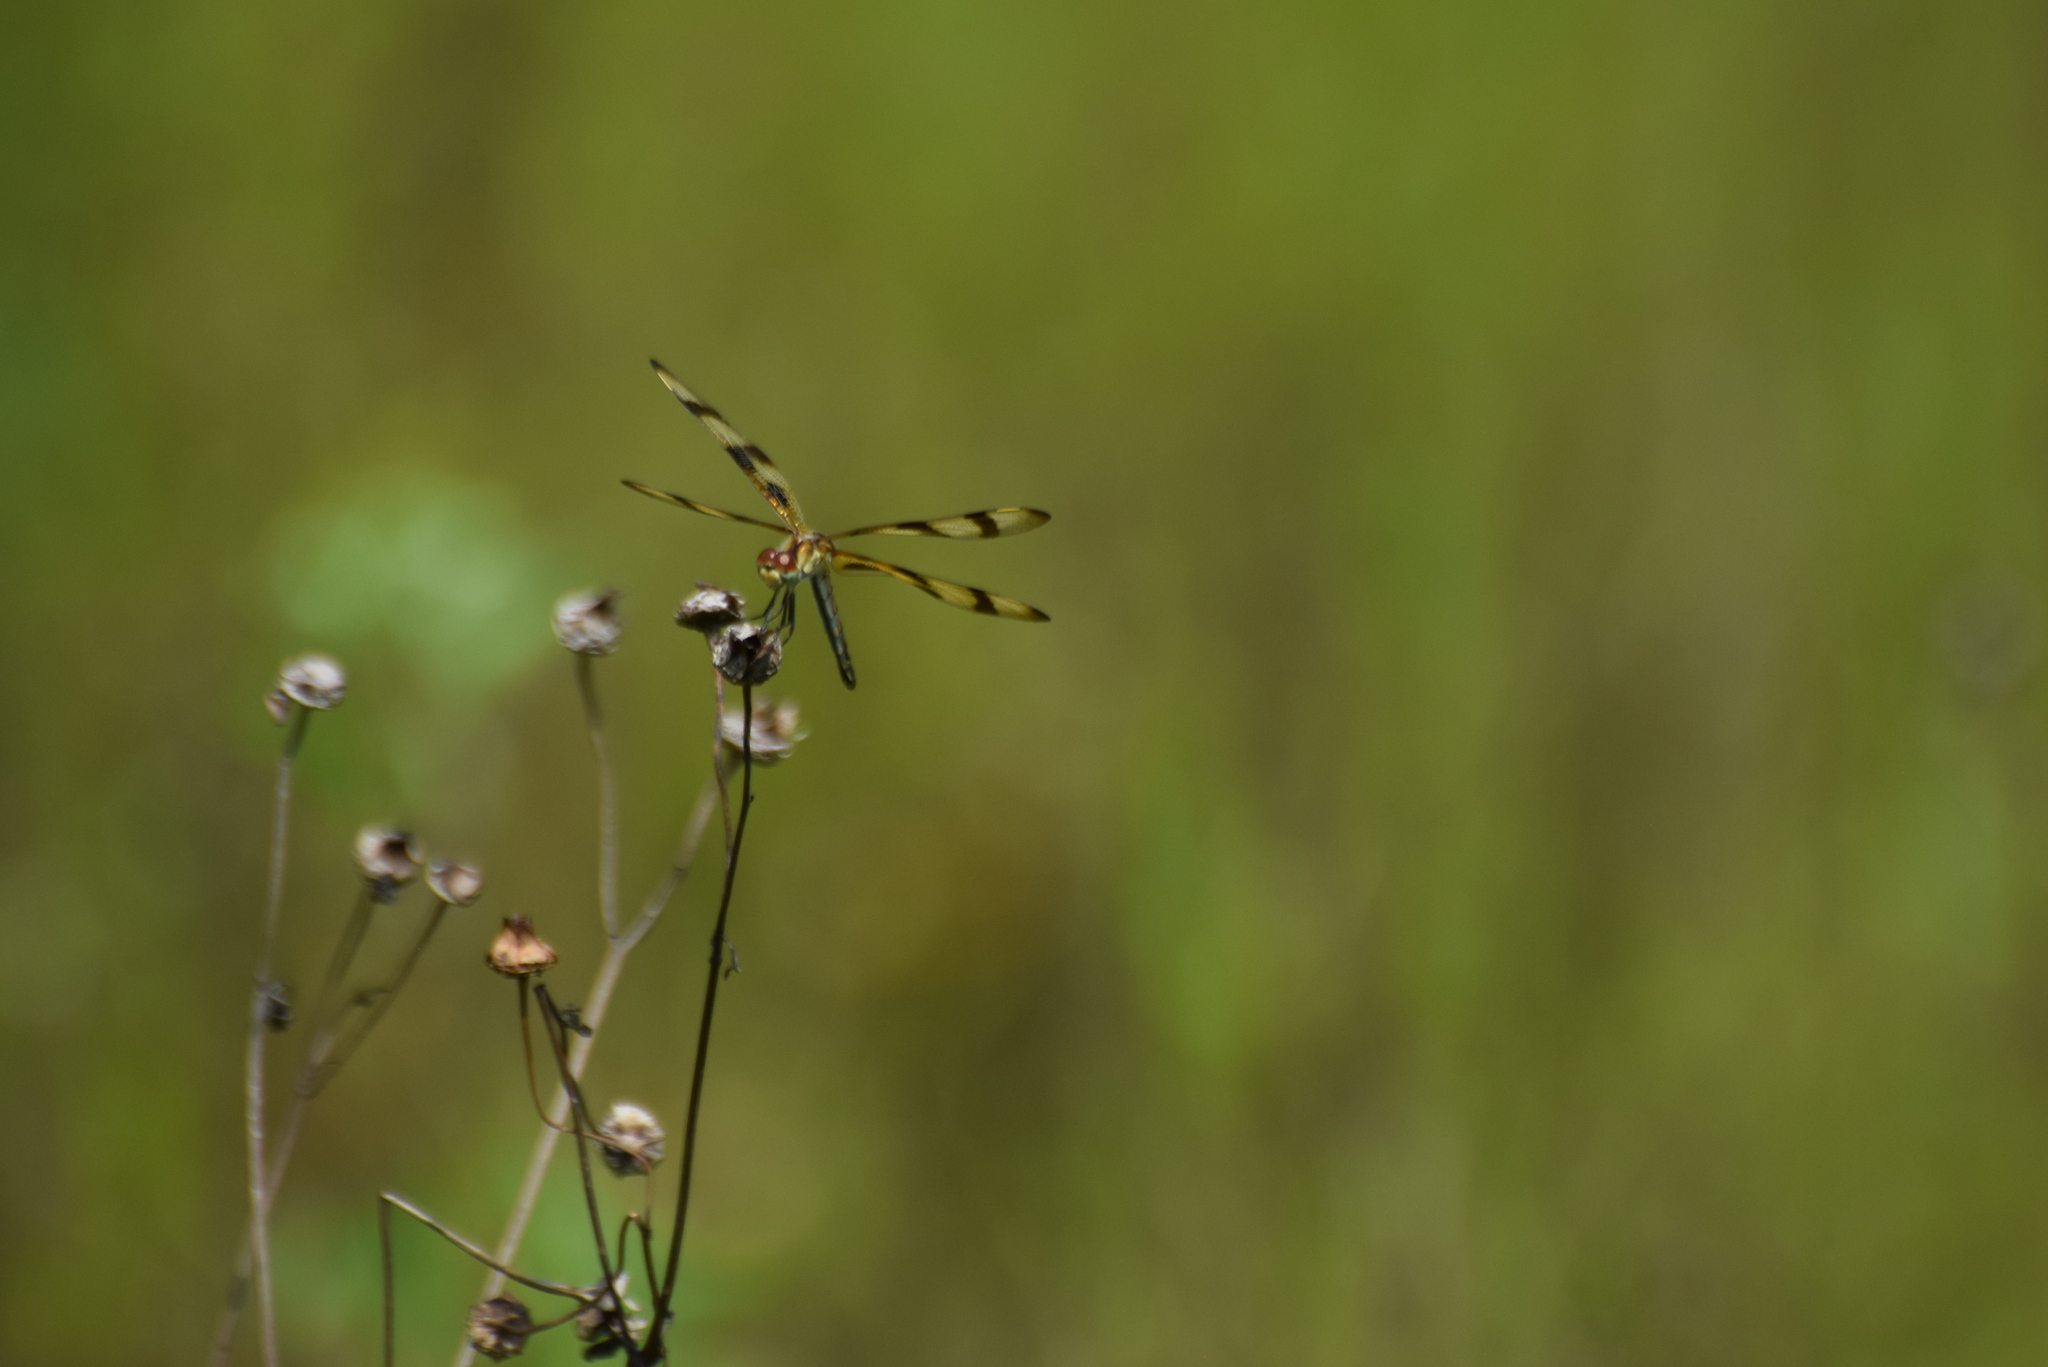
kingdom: Animalia
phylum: Arthropoda
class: Insecta
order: Odonata
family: Libellulidae
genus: Celithemis
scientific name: Celithemis eponina
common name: Halloween pennant
